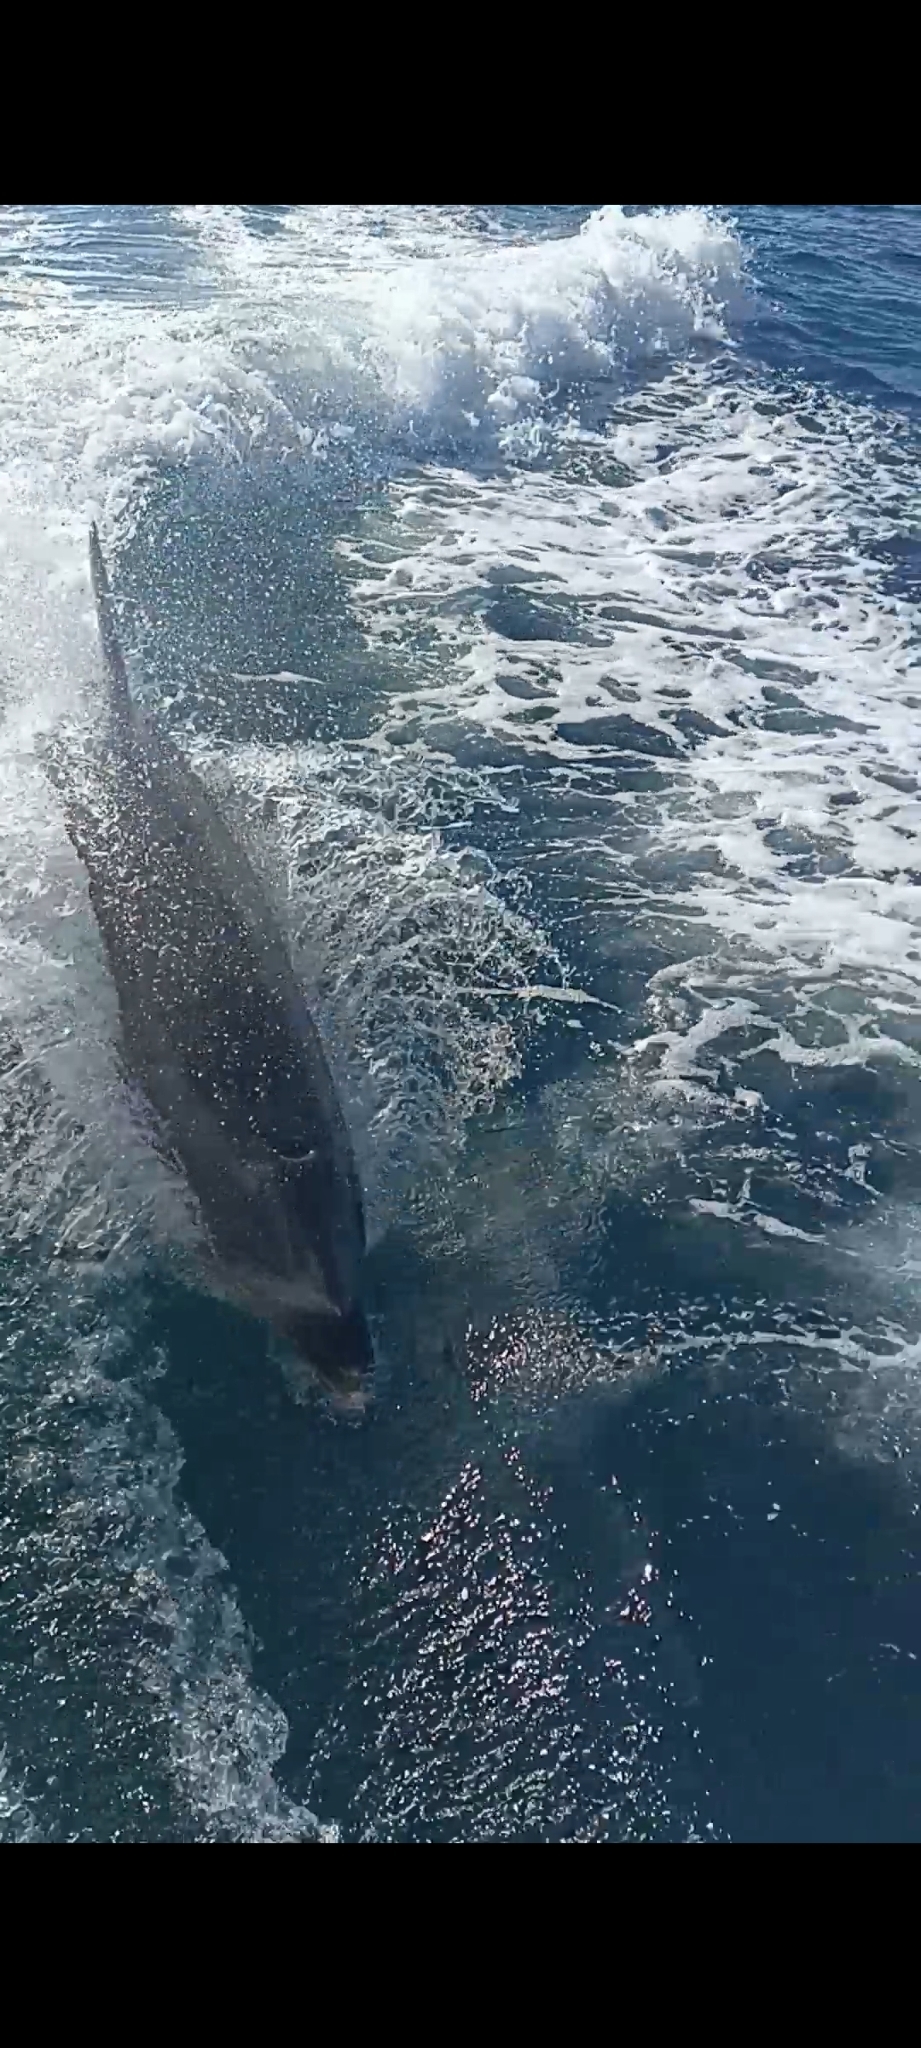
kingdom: Animalia
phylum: Chordata
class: Mammalia
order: Cetacea
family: Delphinidae
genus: Tursiops
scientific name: Tursiops truncatus
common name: Bottlenose dolphin
